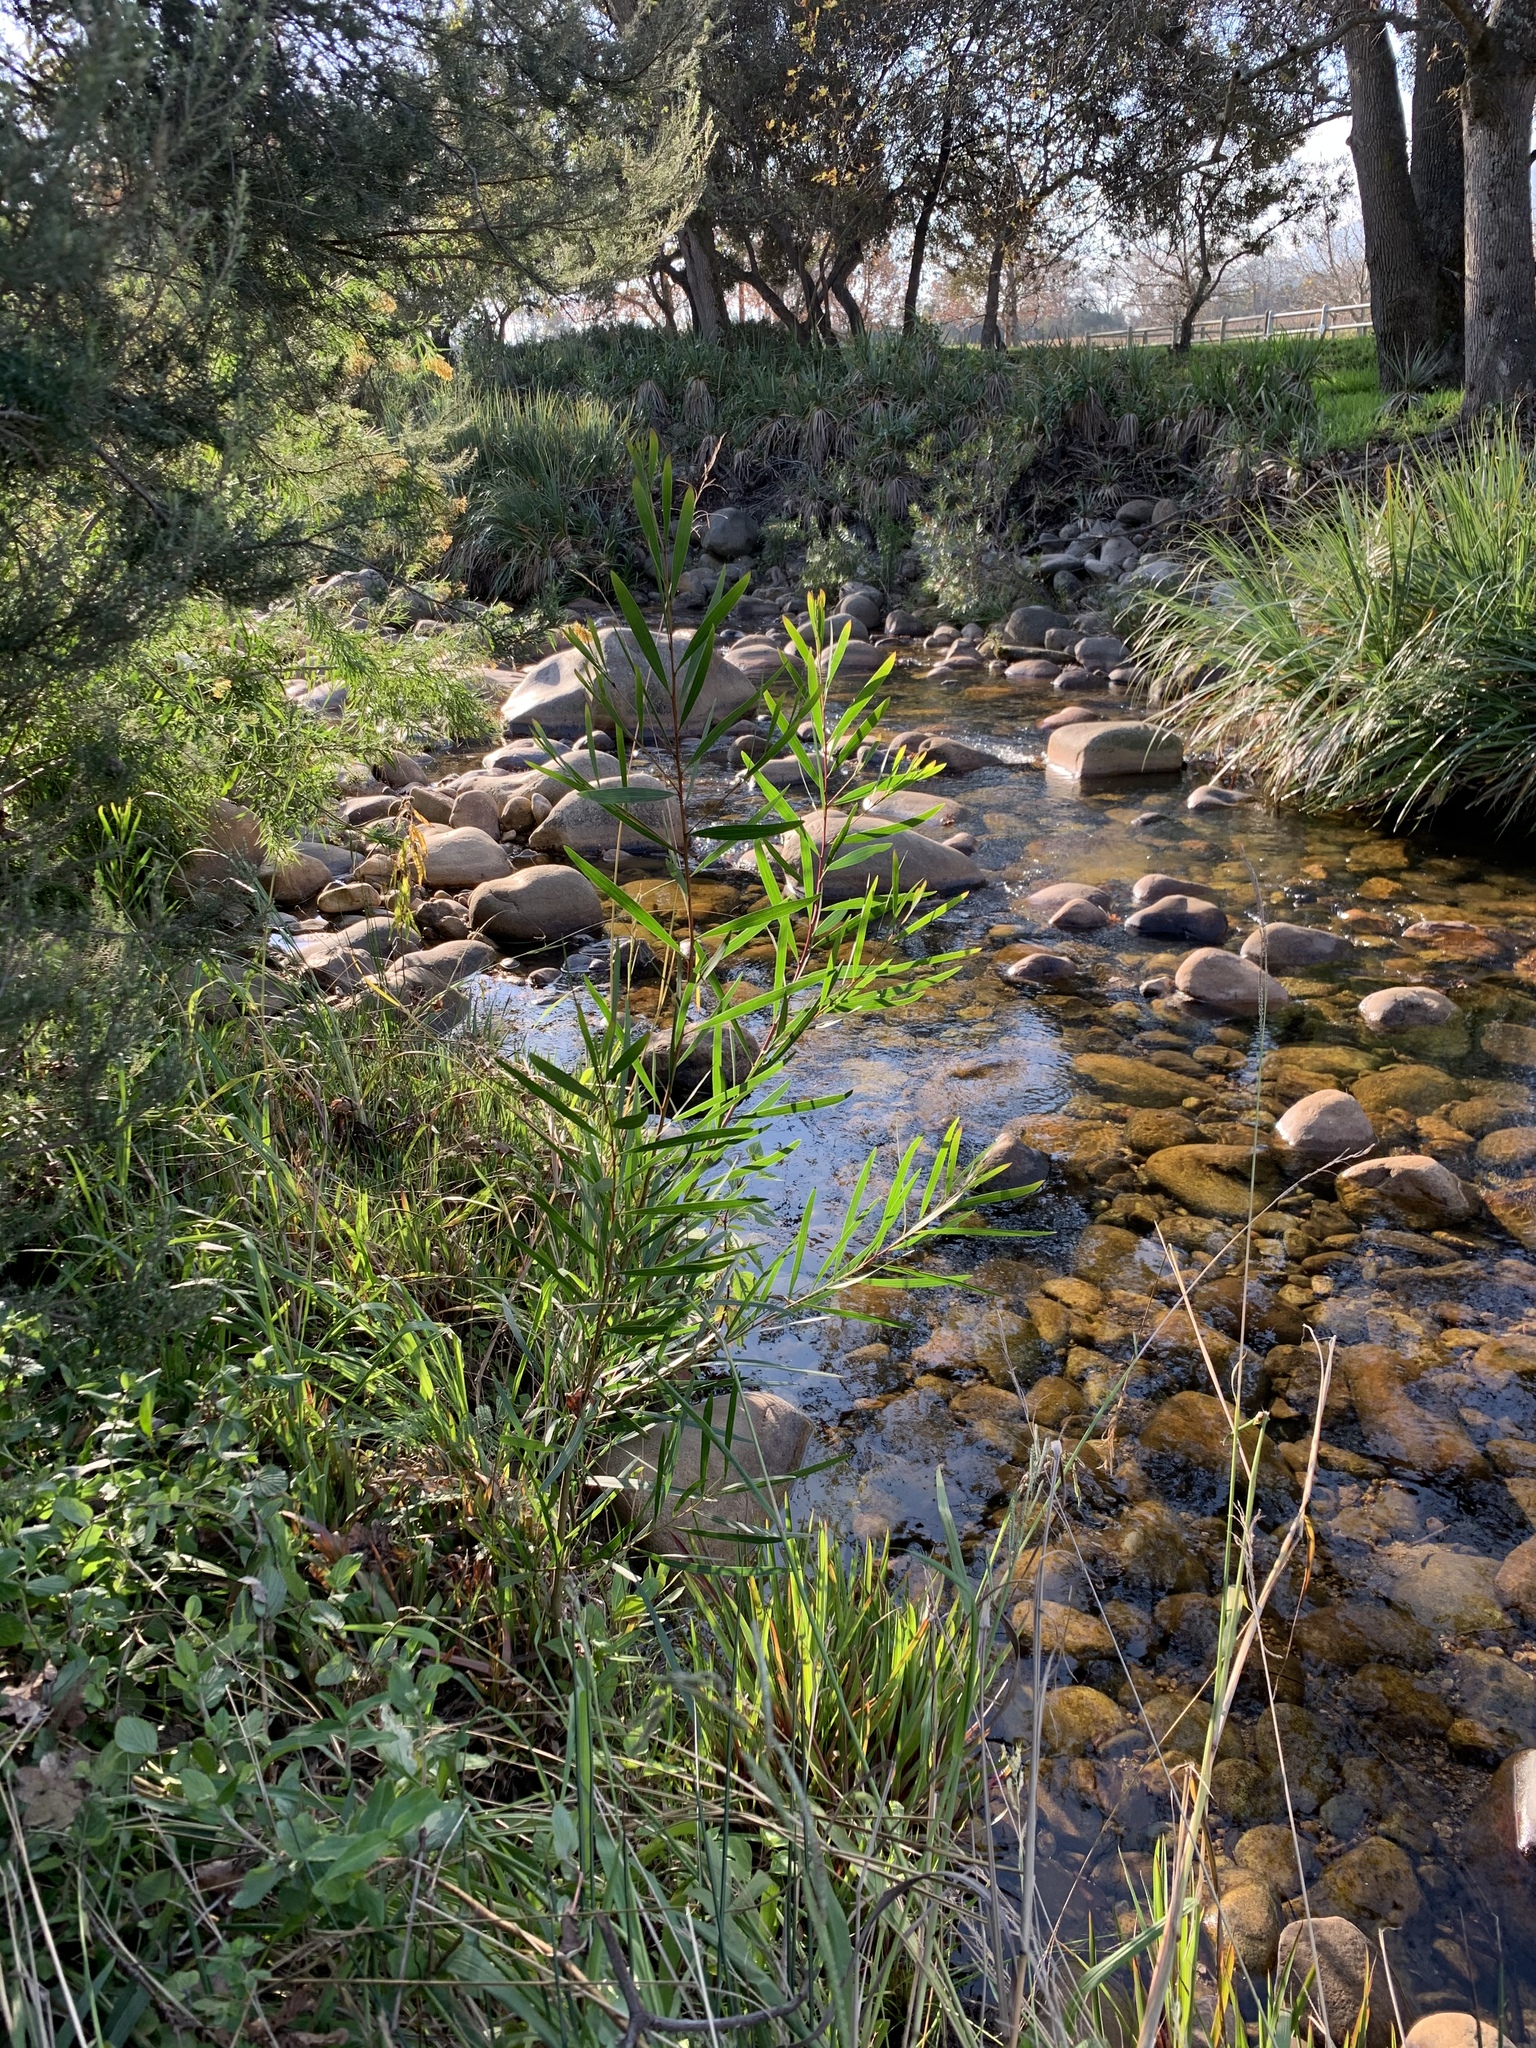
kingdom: Plantae
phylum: Tracheophyta
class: Magnoliopsida
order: Fabales
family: Fabaceae
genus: Acacia
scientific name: Acacia longifolia
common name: Sydney golden wattle
